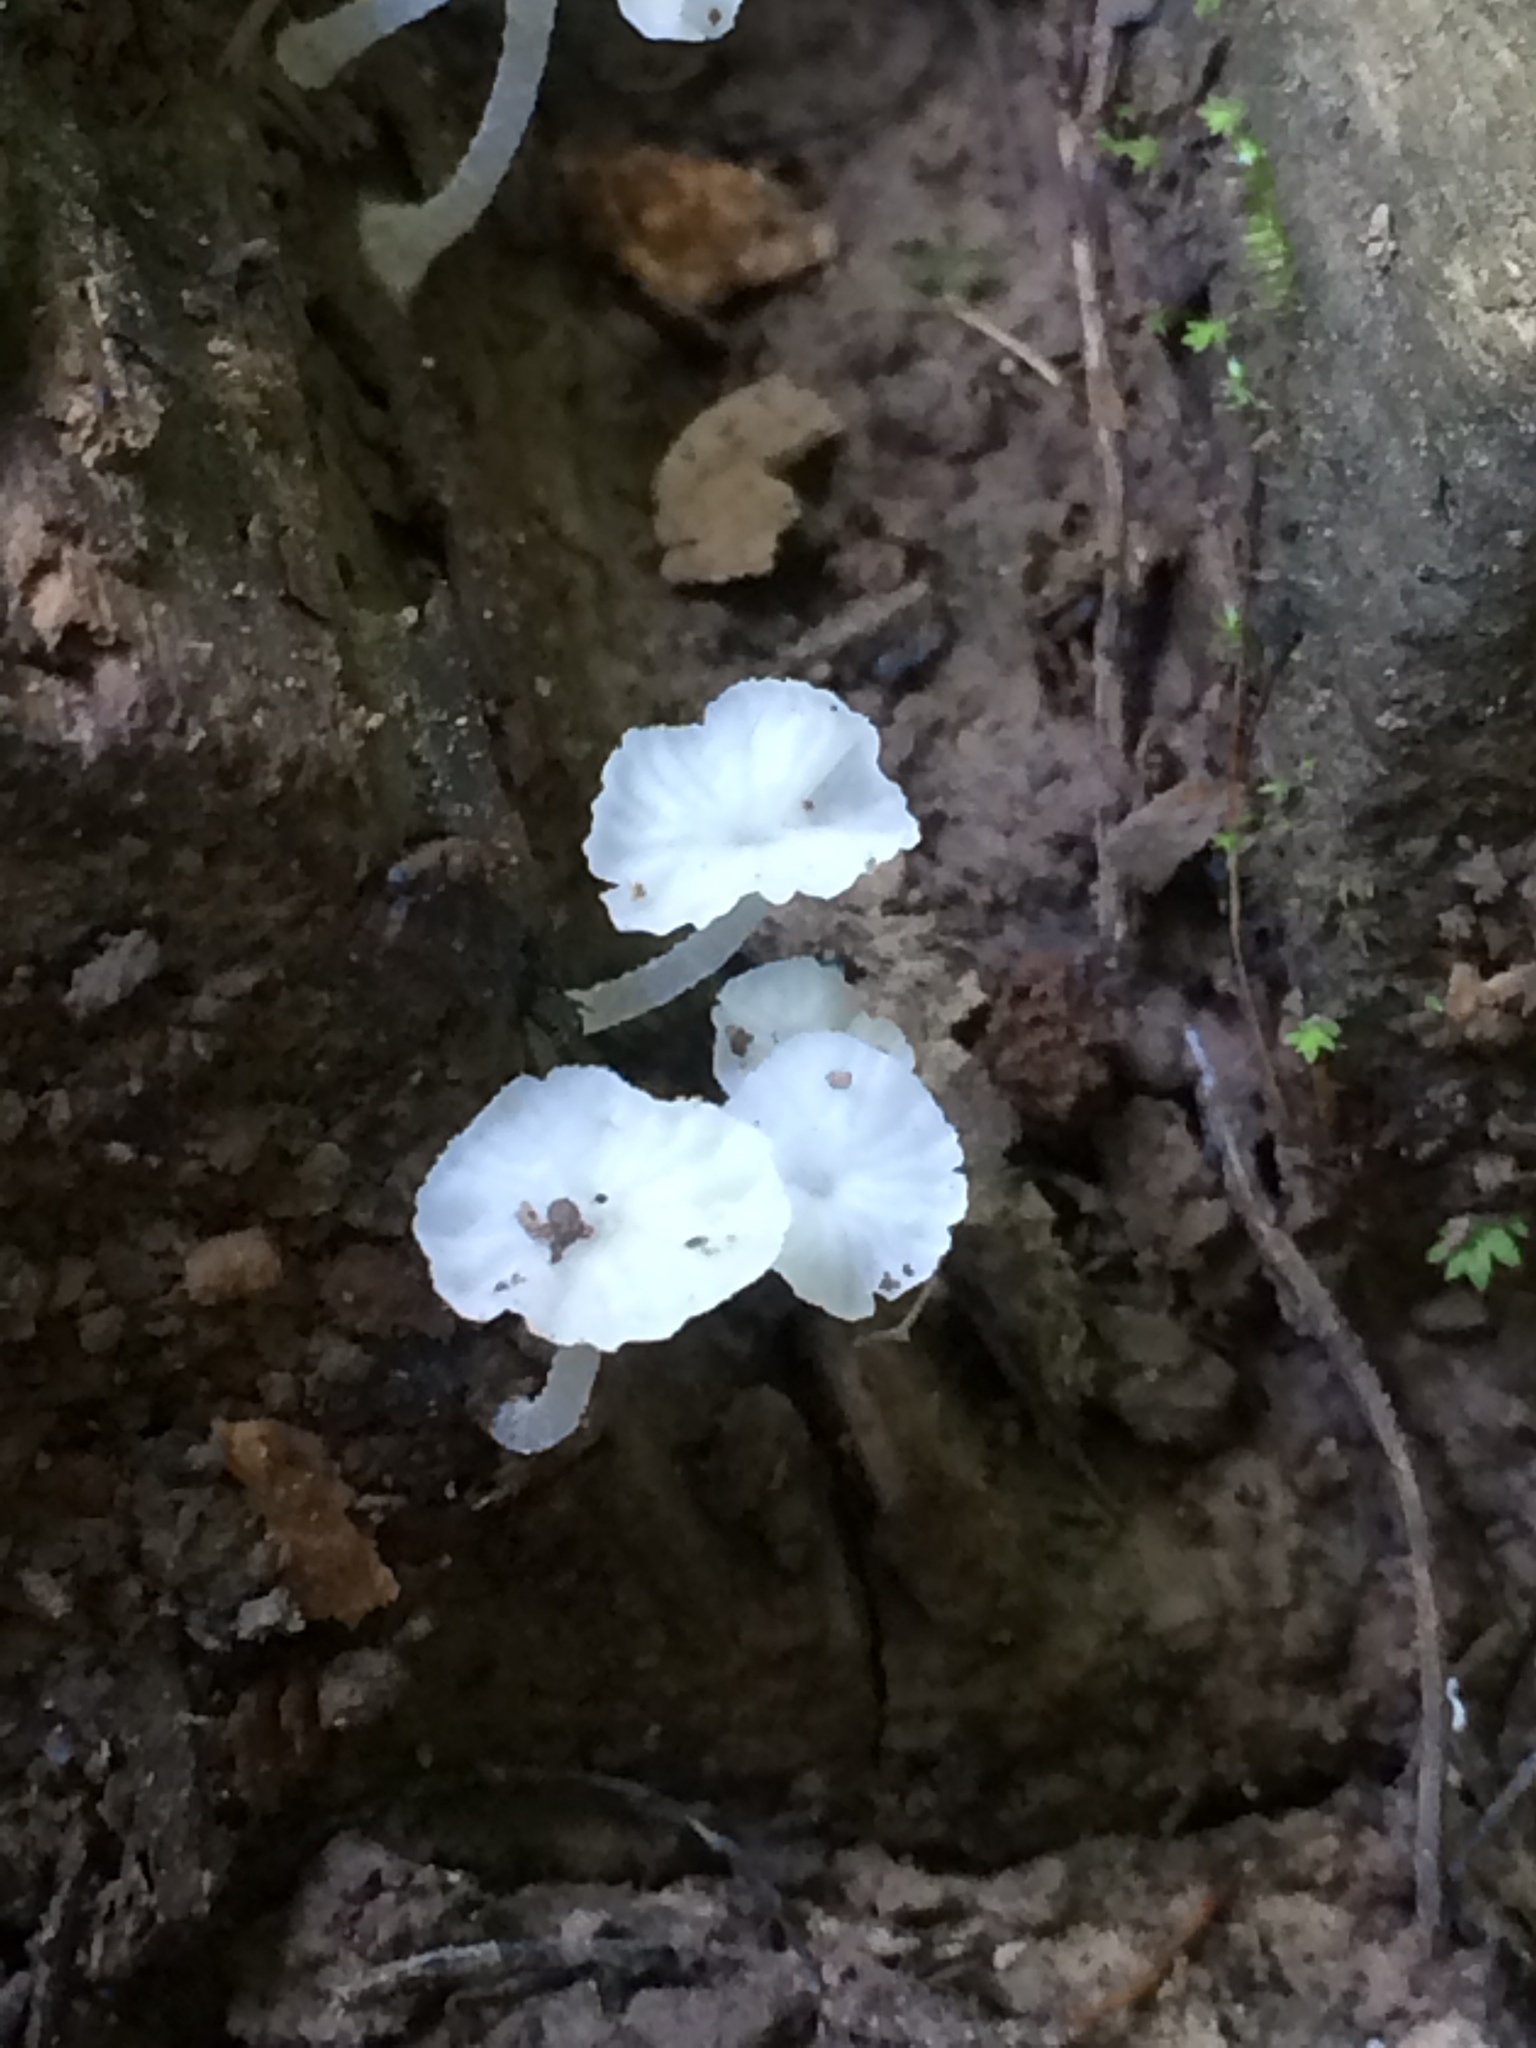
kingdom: Fungi
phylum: Basidiomycota
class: Agaricomycetes
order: Agaricales
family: Tricholomataceae
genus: Delicatula
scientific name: Delicatula integrella
